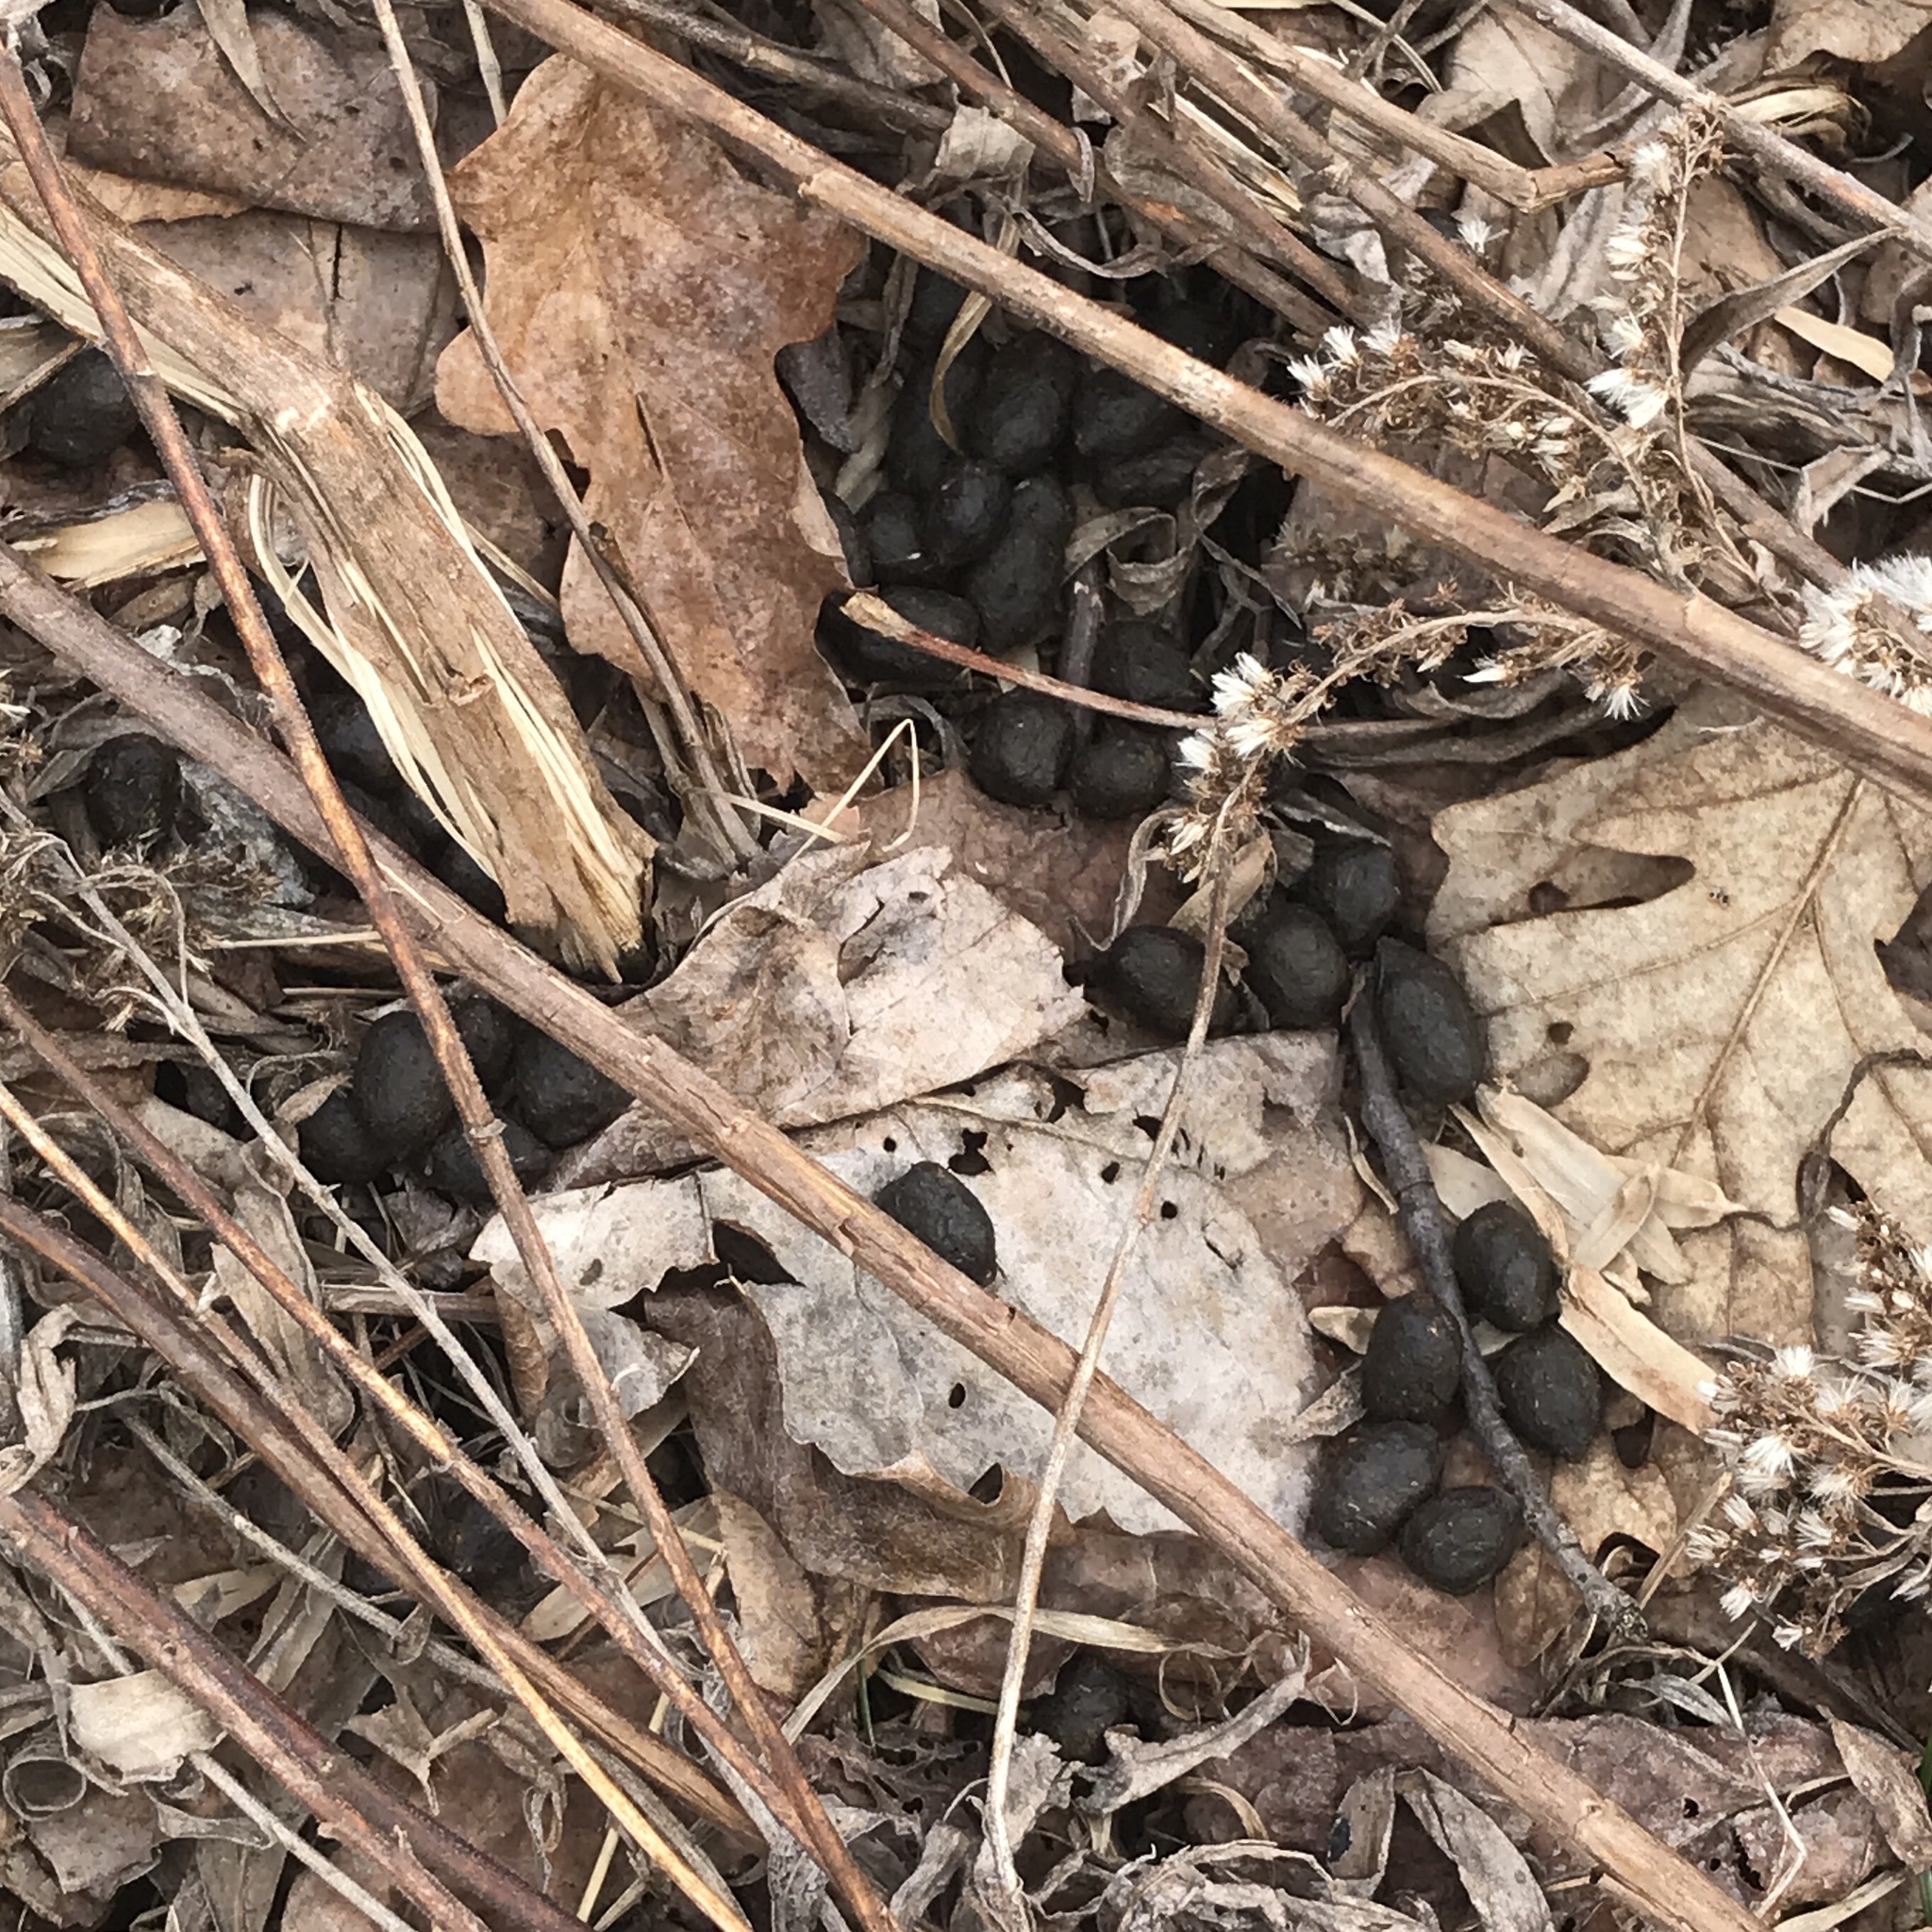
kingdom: Animalia
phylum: Chordata
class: Mammalia
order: Artiodactyla
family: Cervidae
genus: Odocoileus
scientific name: Odocoileus virginianus
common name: White-tailed deer
